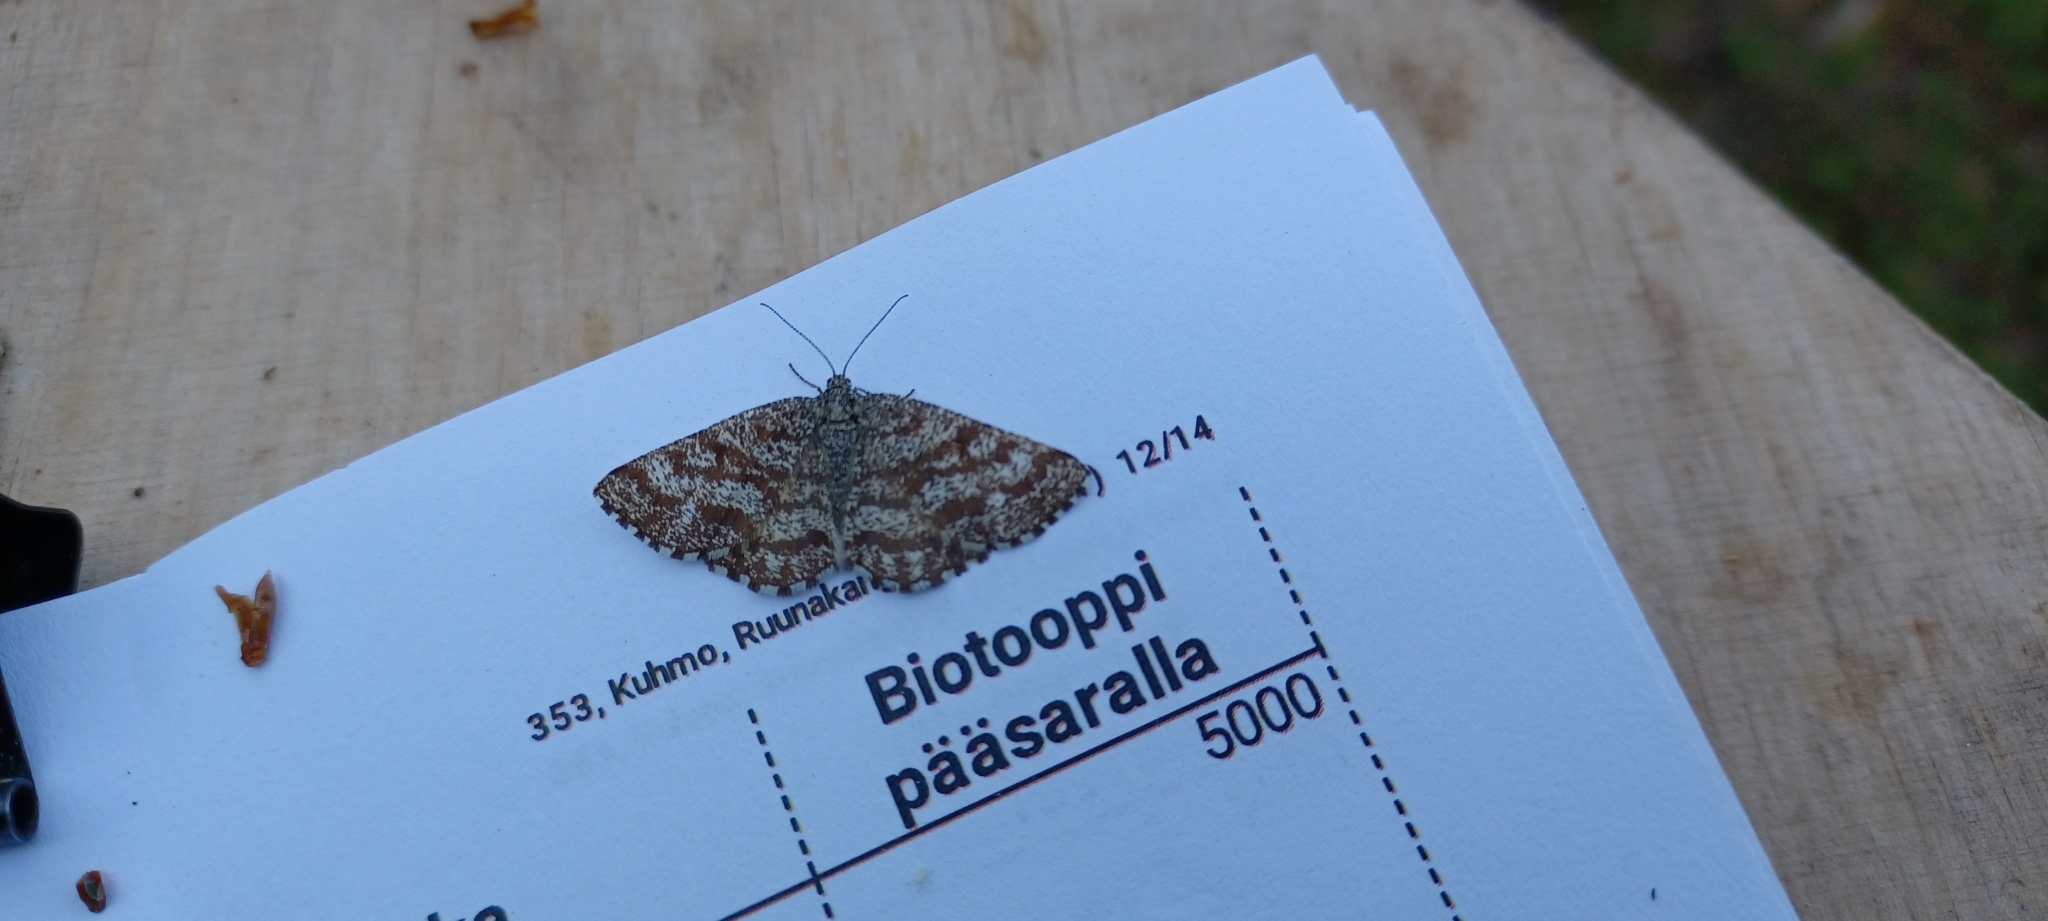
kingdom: Animalia
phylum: Arthropoda
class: Insecta
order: Lepidoptera
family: Geometridae
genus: Ematurga
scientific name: Ematurga atomaria
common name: Common heath
